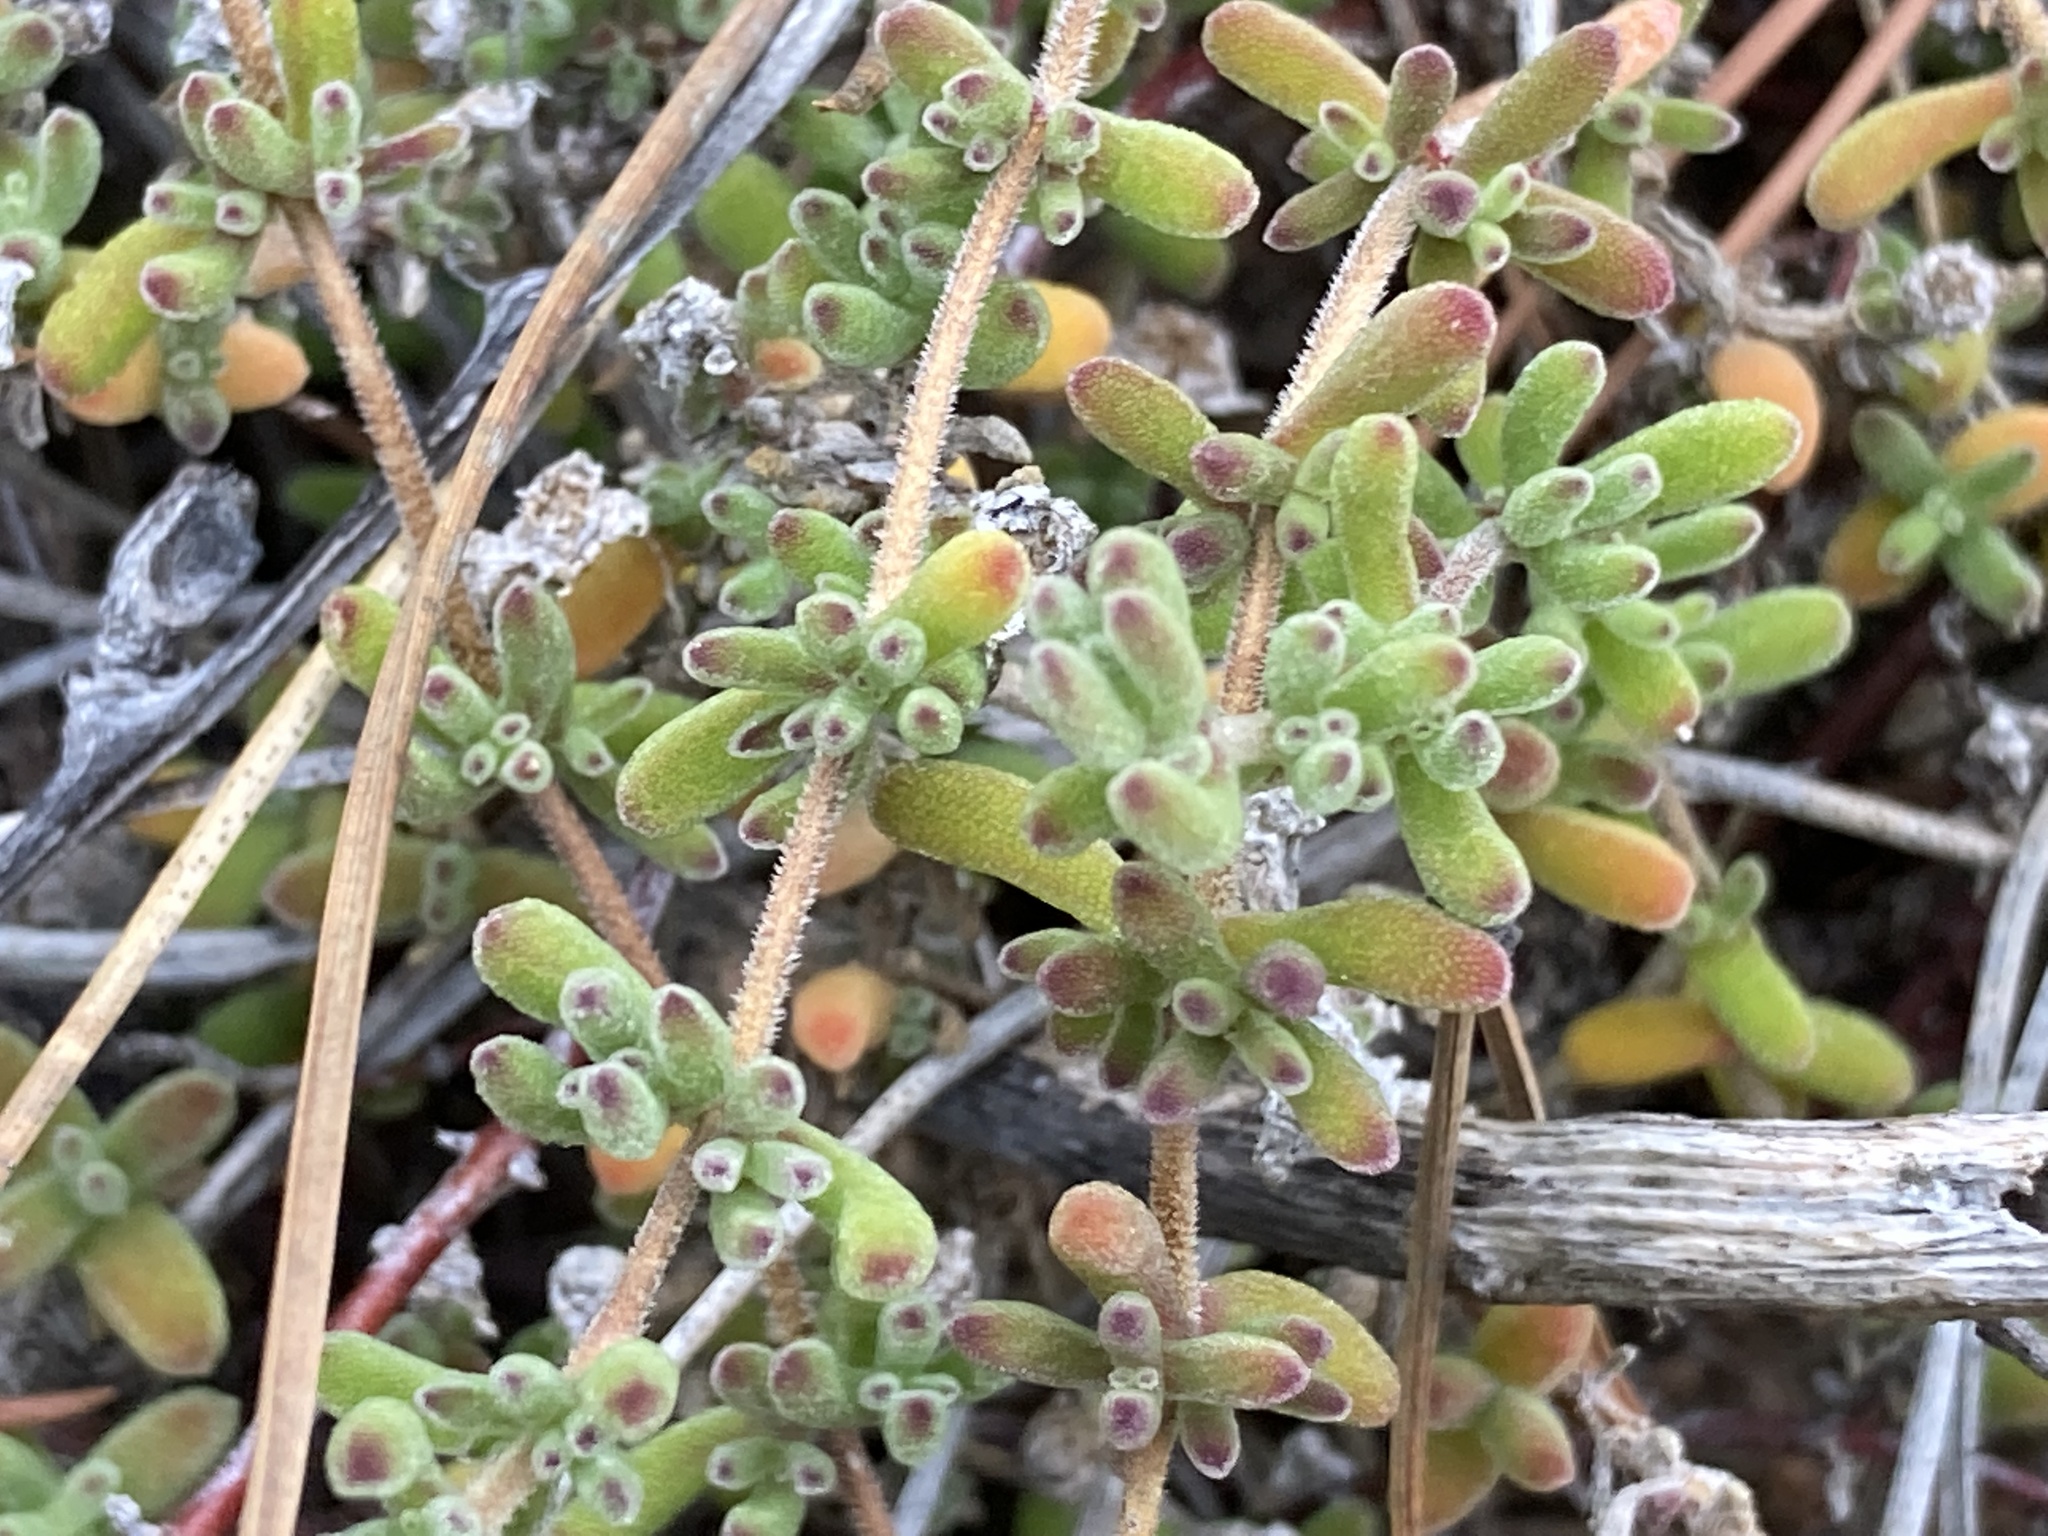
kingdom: Plantae
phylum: Tracheophyta
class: Magnoliopsida
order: Caryophyllales
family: Aizoaceae
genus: Drosanthemum
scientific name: Drosanthemum floribundum
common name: Pale dewplant
